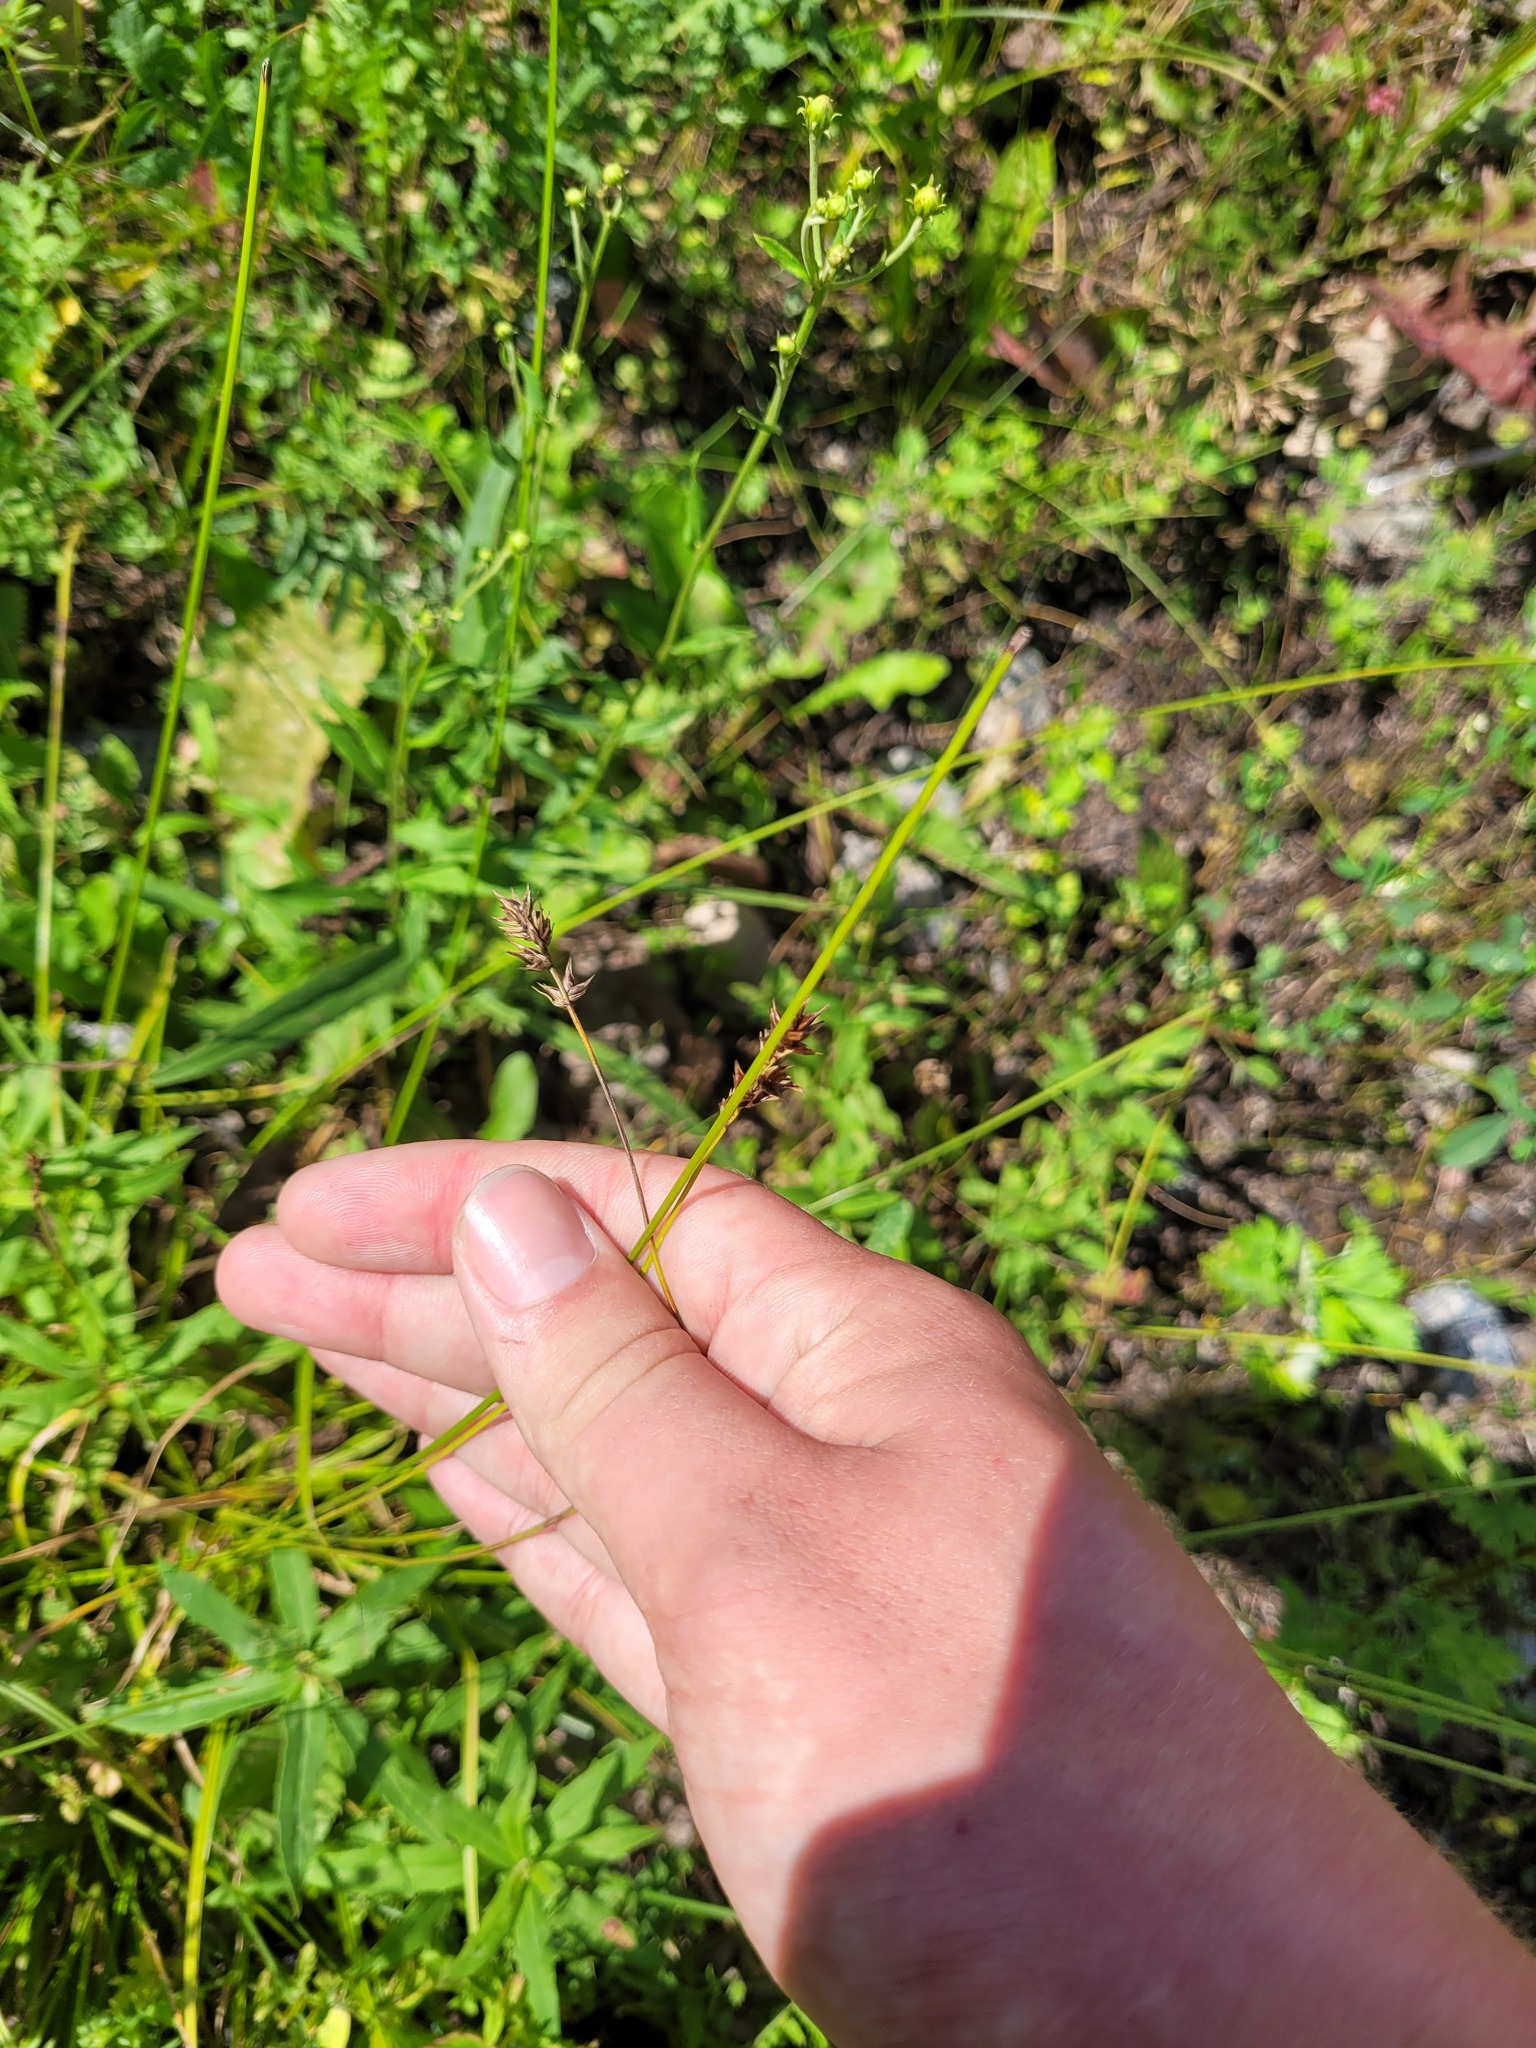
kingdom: Plantae
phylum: Tracheophyta
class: Liliopsida
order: Poales
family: Cyperaceae
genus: Carex
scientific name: Carex spicata
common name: Spiked sedge
